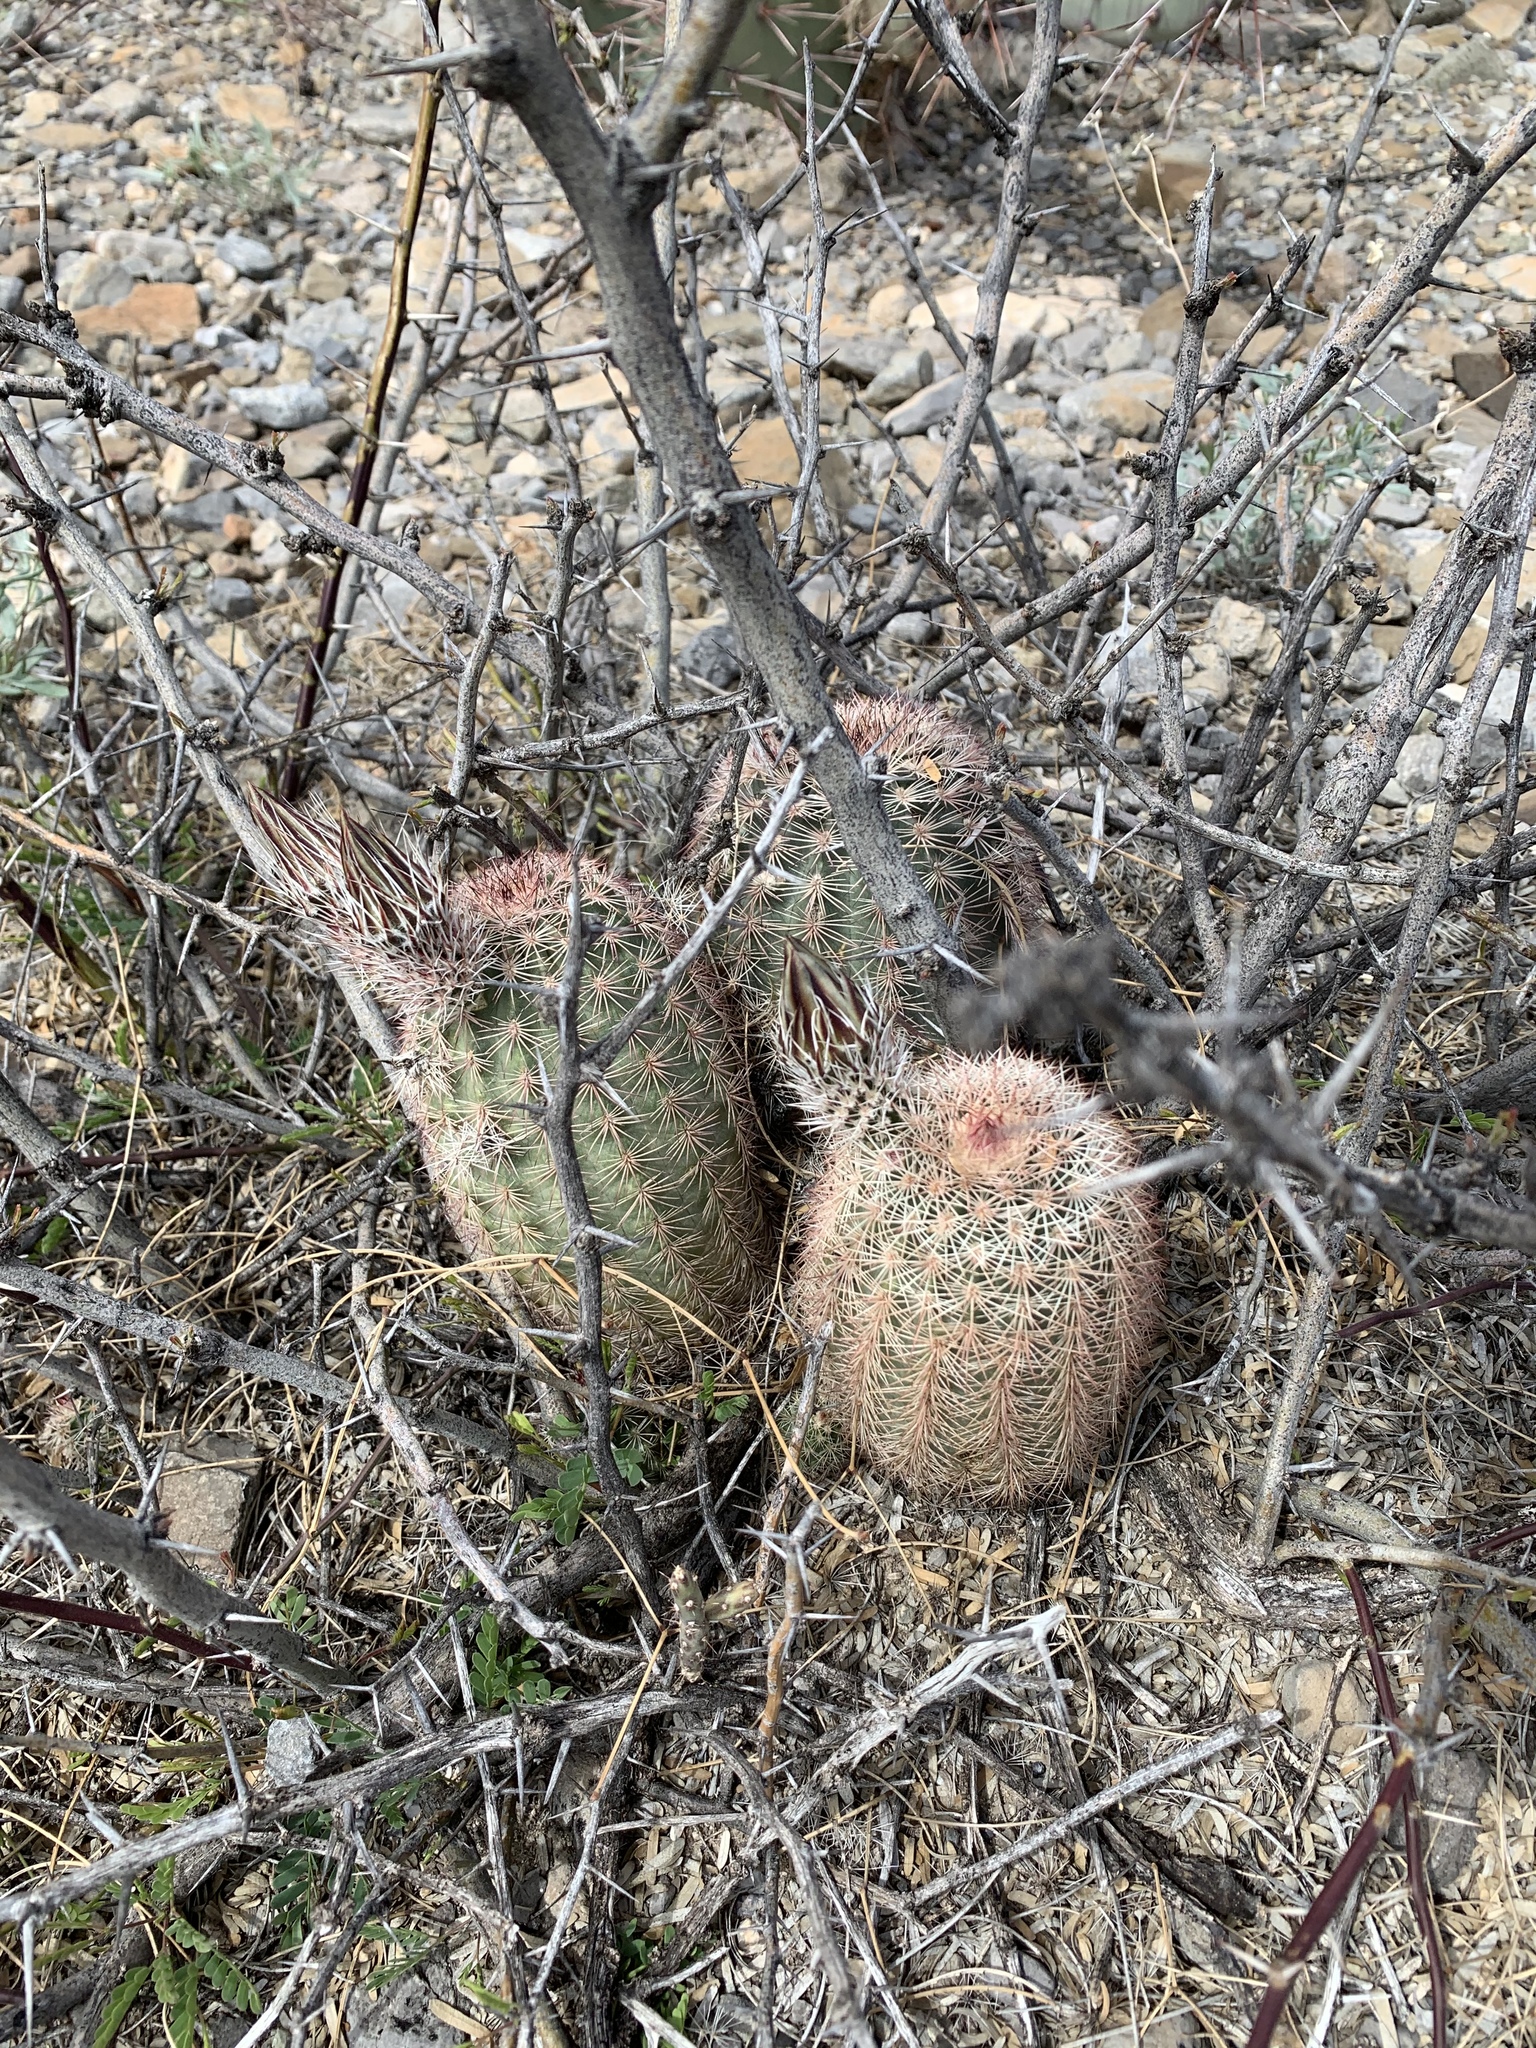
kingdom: Plantae
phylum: Tracheophyta
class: Magnoliopsida
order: Caryophyllales
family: Cactaceae
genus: Echinocereus
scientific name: Echinocereus dasyacanthus
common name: Spiny hedgehog cactus
